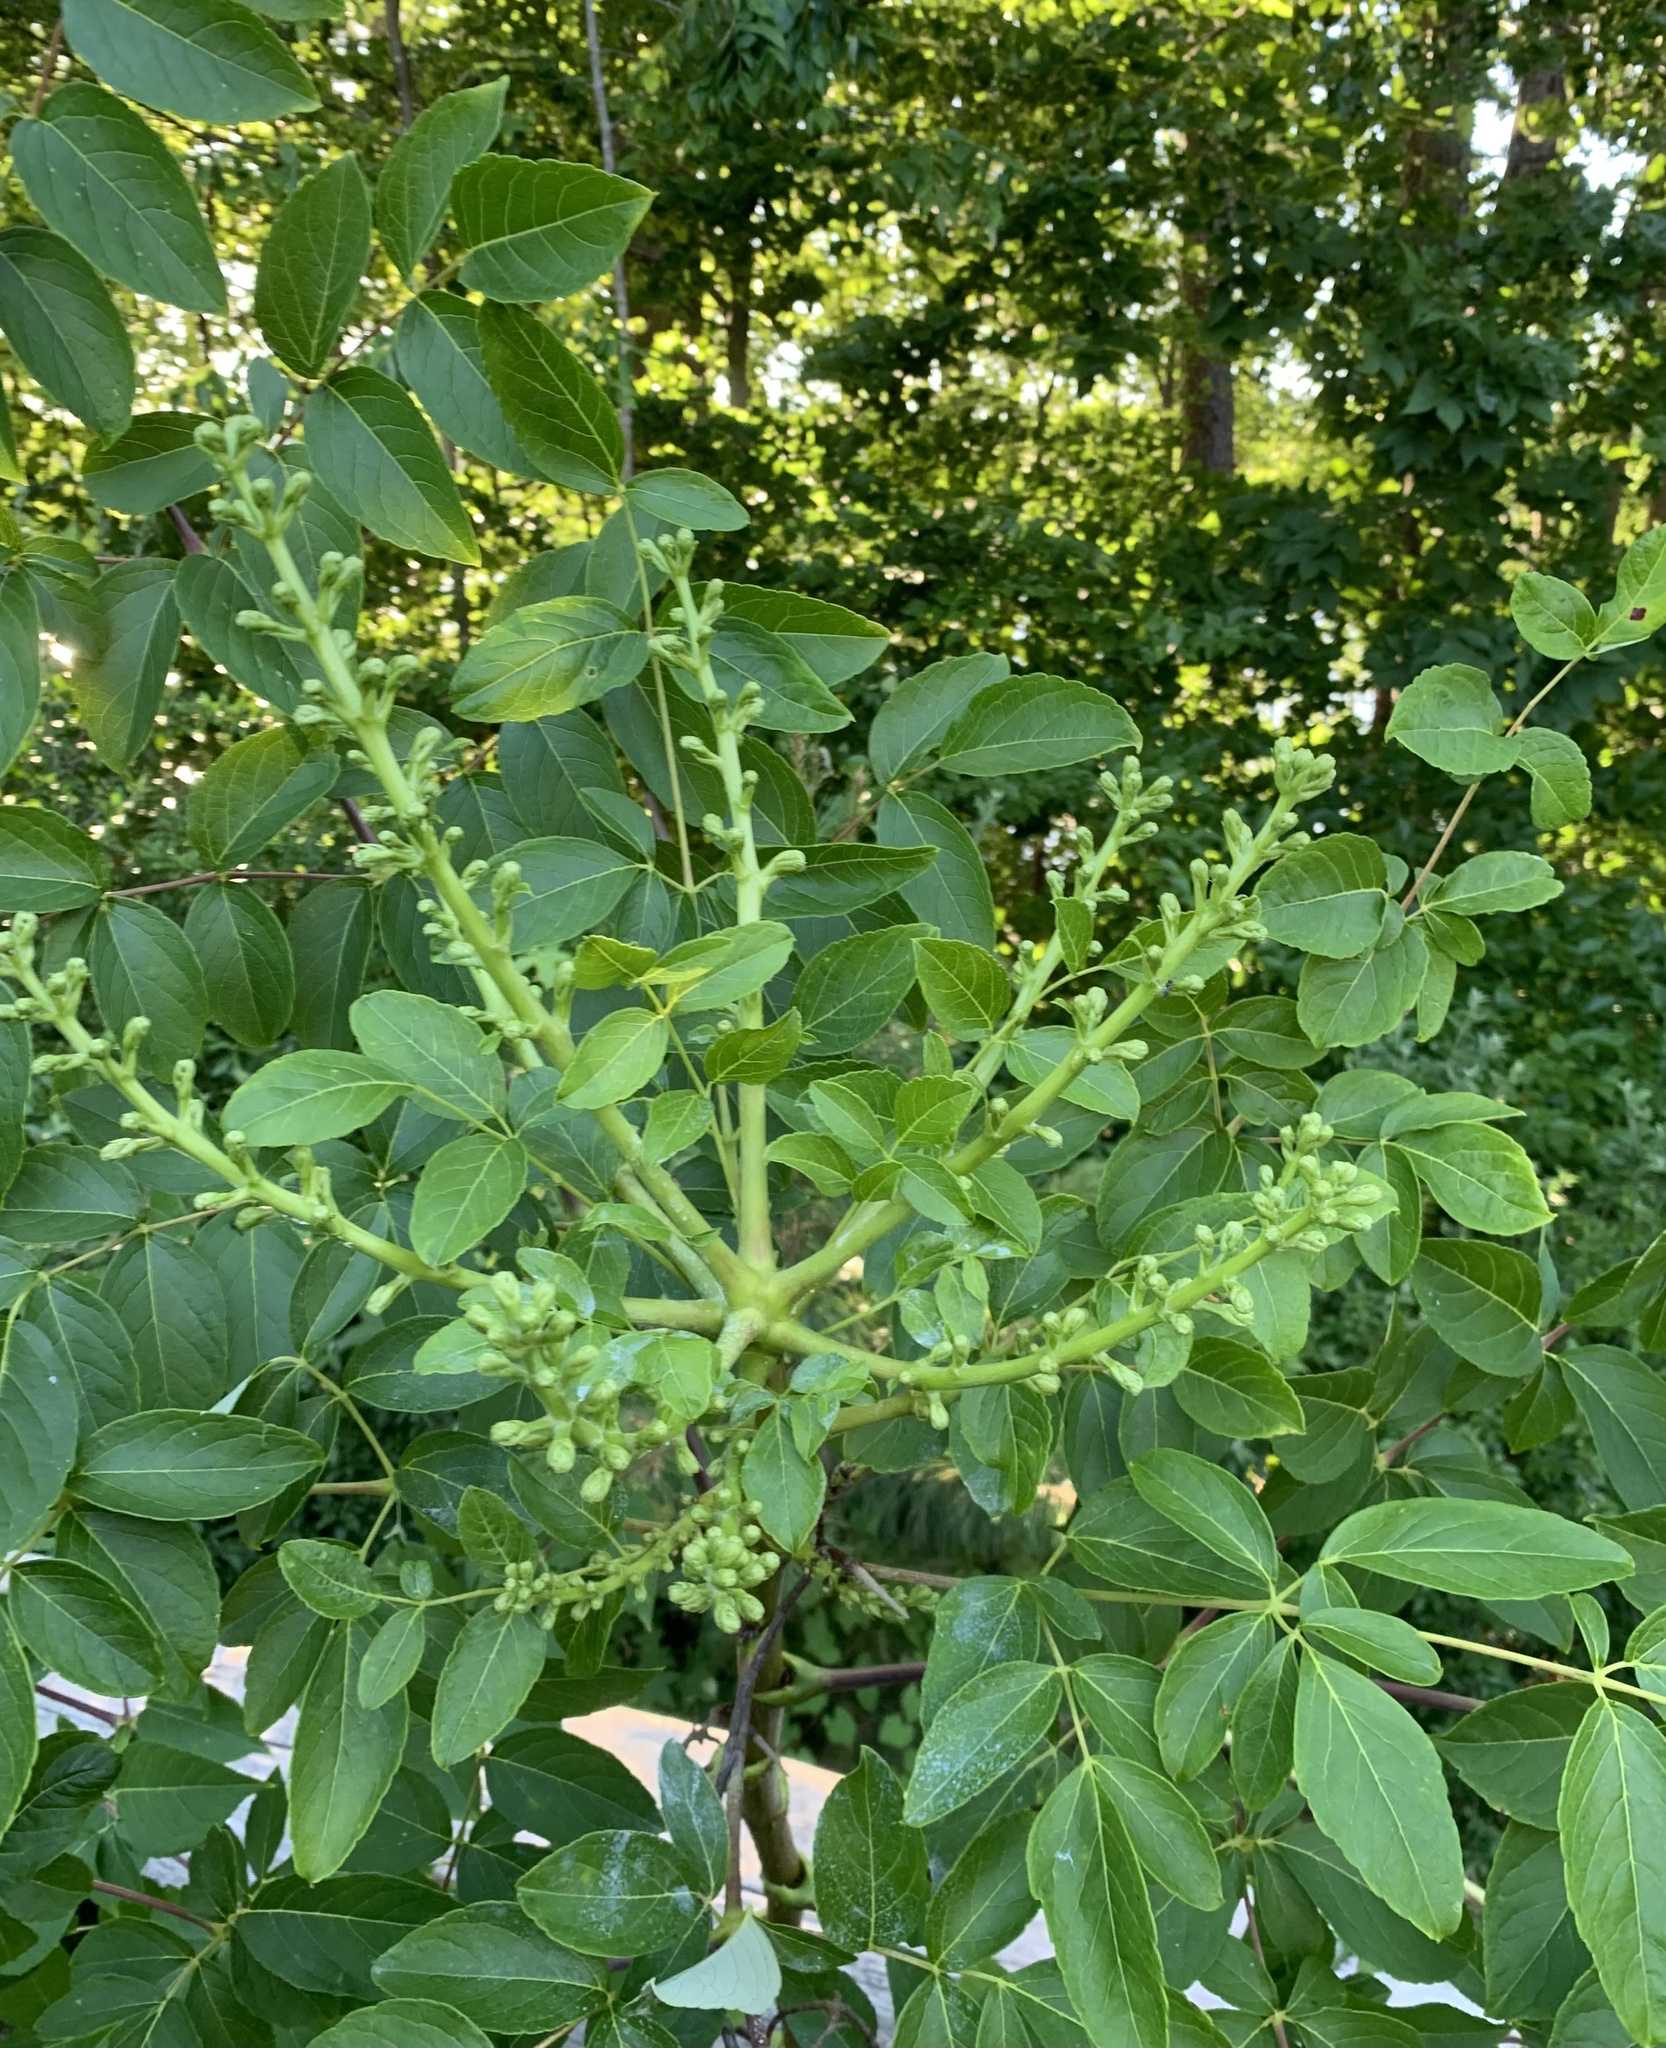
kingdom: Plantae
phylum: Tracheophyta
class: Magnoliopsida
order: Apiales
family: Araliaceae
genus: Aralia
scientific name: Aralia spinosa
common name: Hercules'-club
